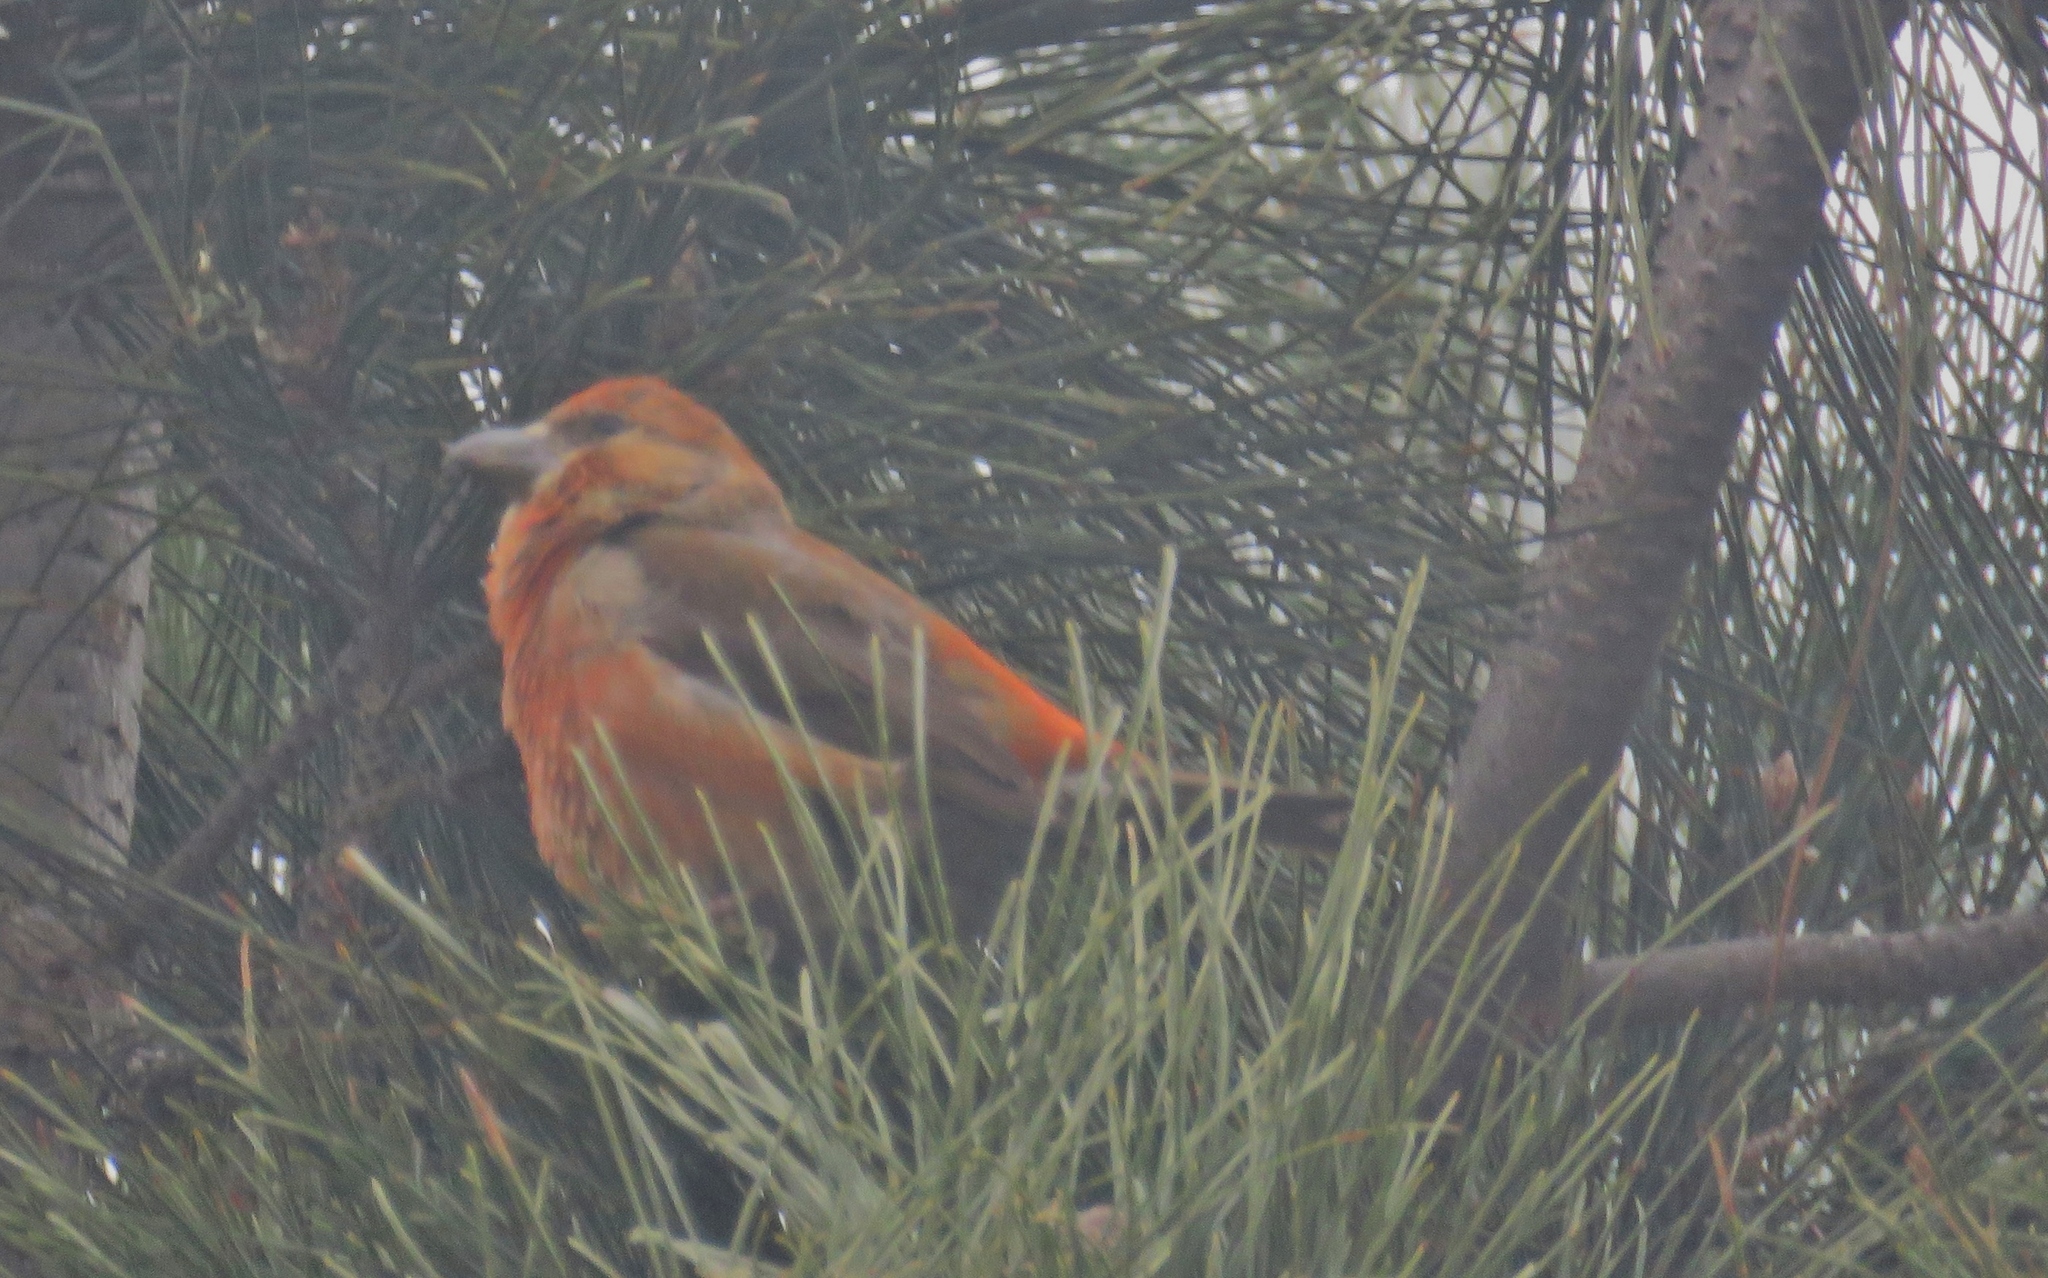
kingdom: Animalia
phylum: Chordata
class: Aves
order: Passeriformes
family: Fringillidae
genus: Loxia
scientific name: Loxia curvirostra
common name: Red crossbill
